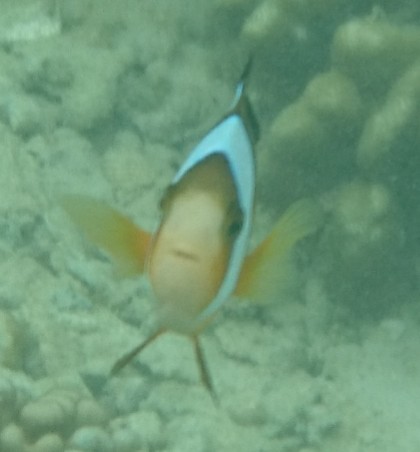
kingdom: Animalia
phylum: Chordata
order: Perciformes
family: Pomacentridae
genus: Amphiprion
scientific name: Amphiprion clarkii
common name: Clark's anemonefish
